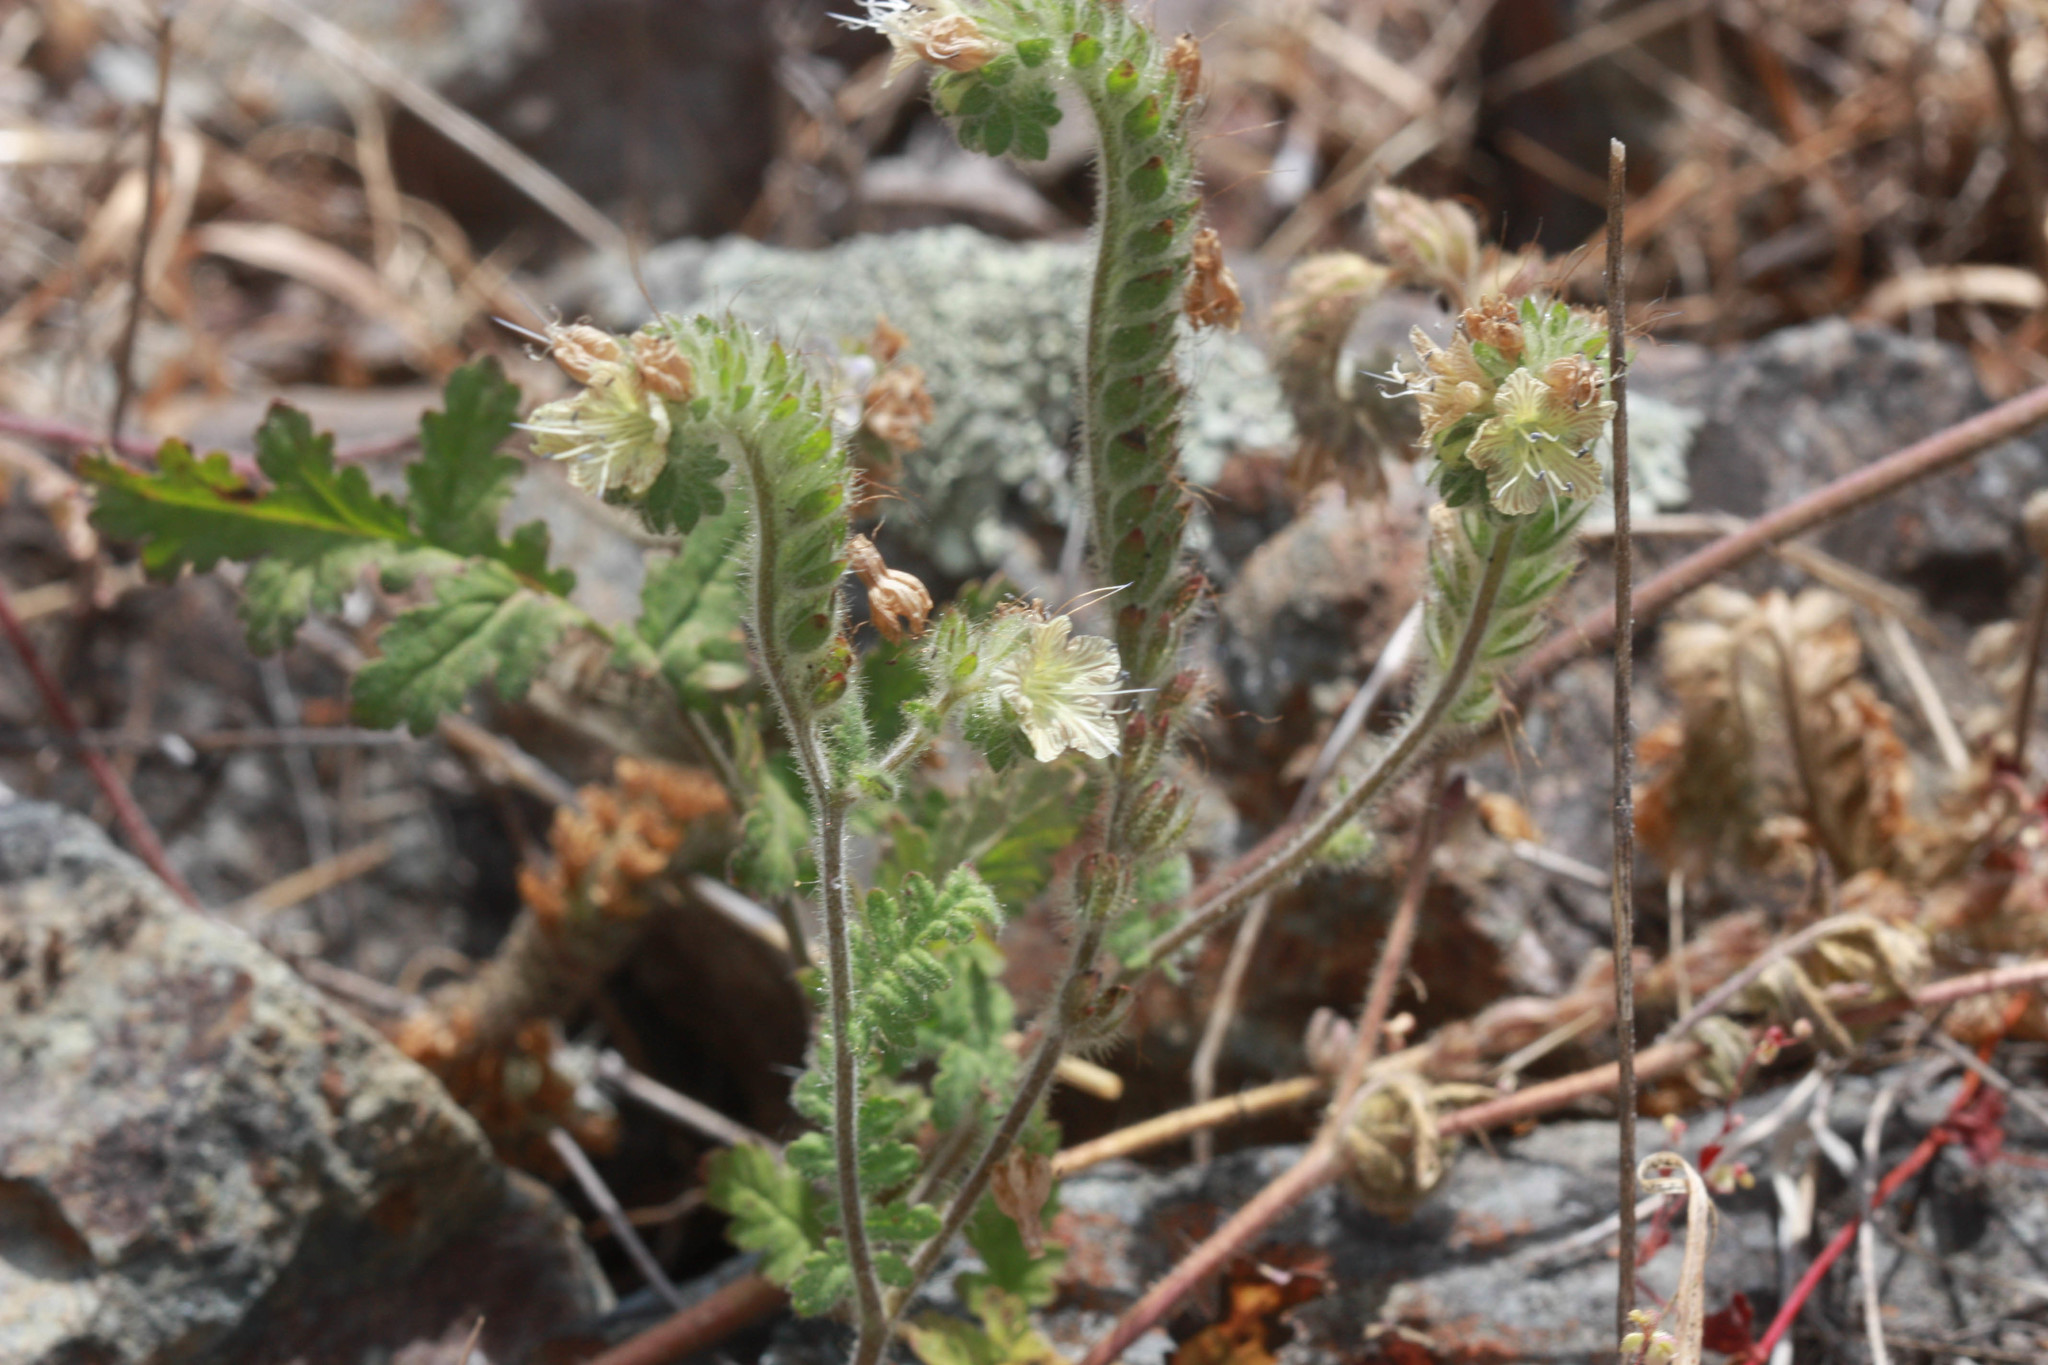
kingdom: Plantae
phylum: Tracheophyta
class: Magnoliopsida
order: Boraginales
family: Hydrophyllaceae
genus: Phacelia
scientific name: Phacelia distans
